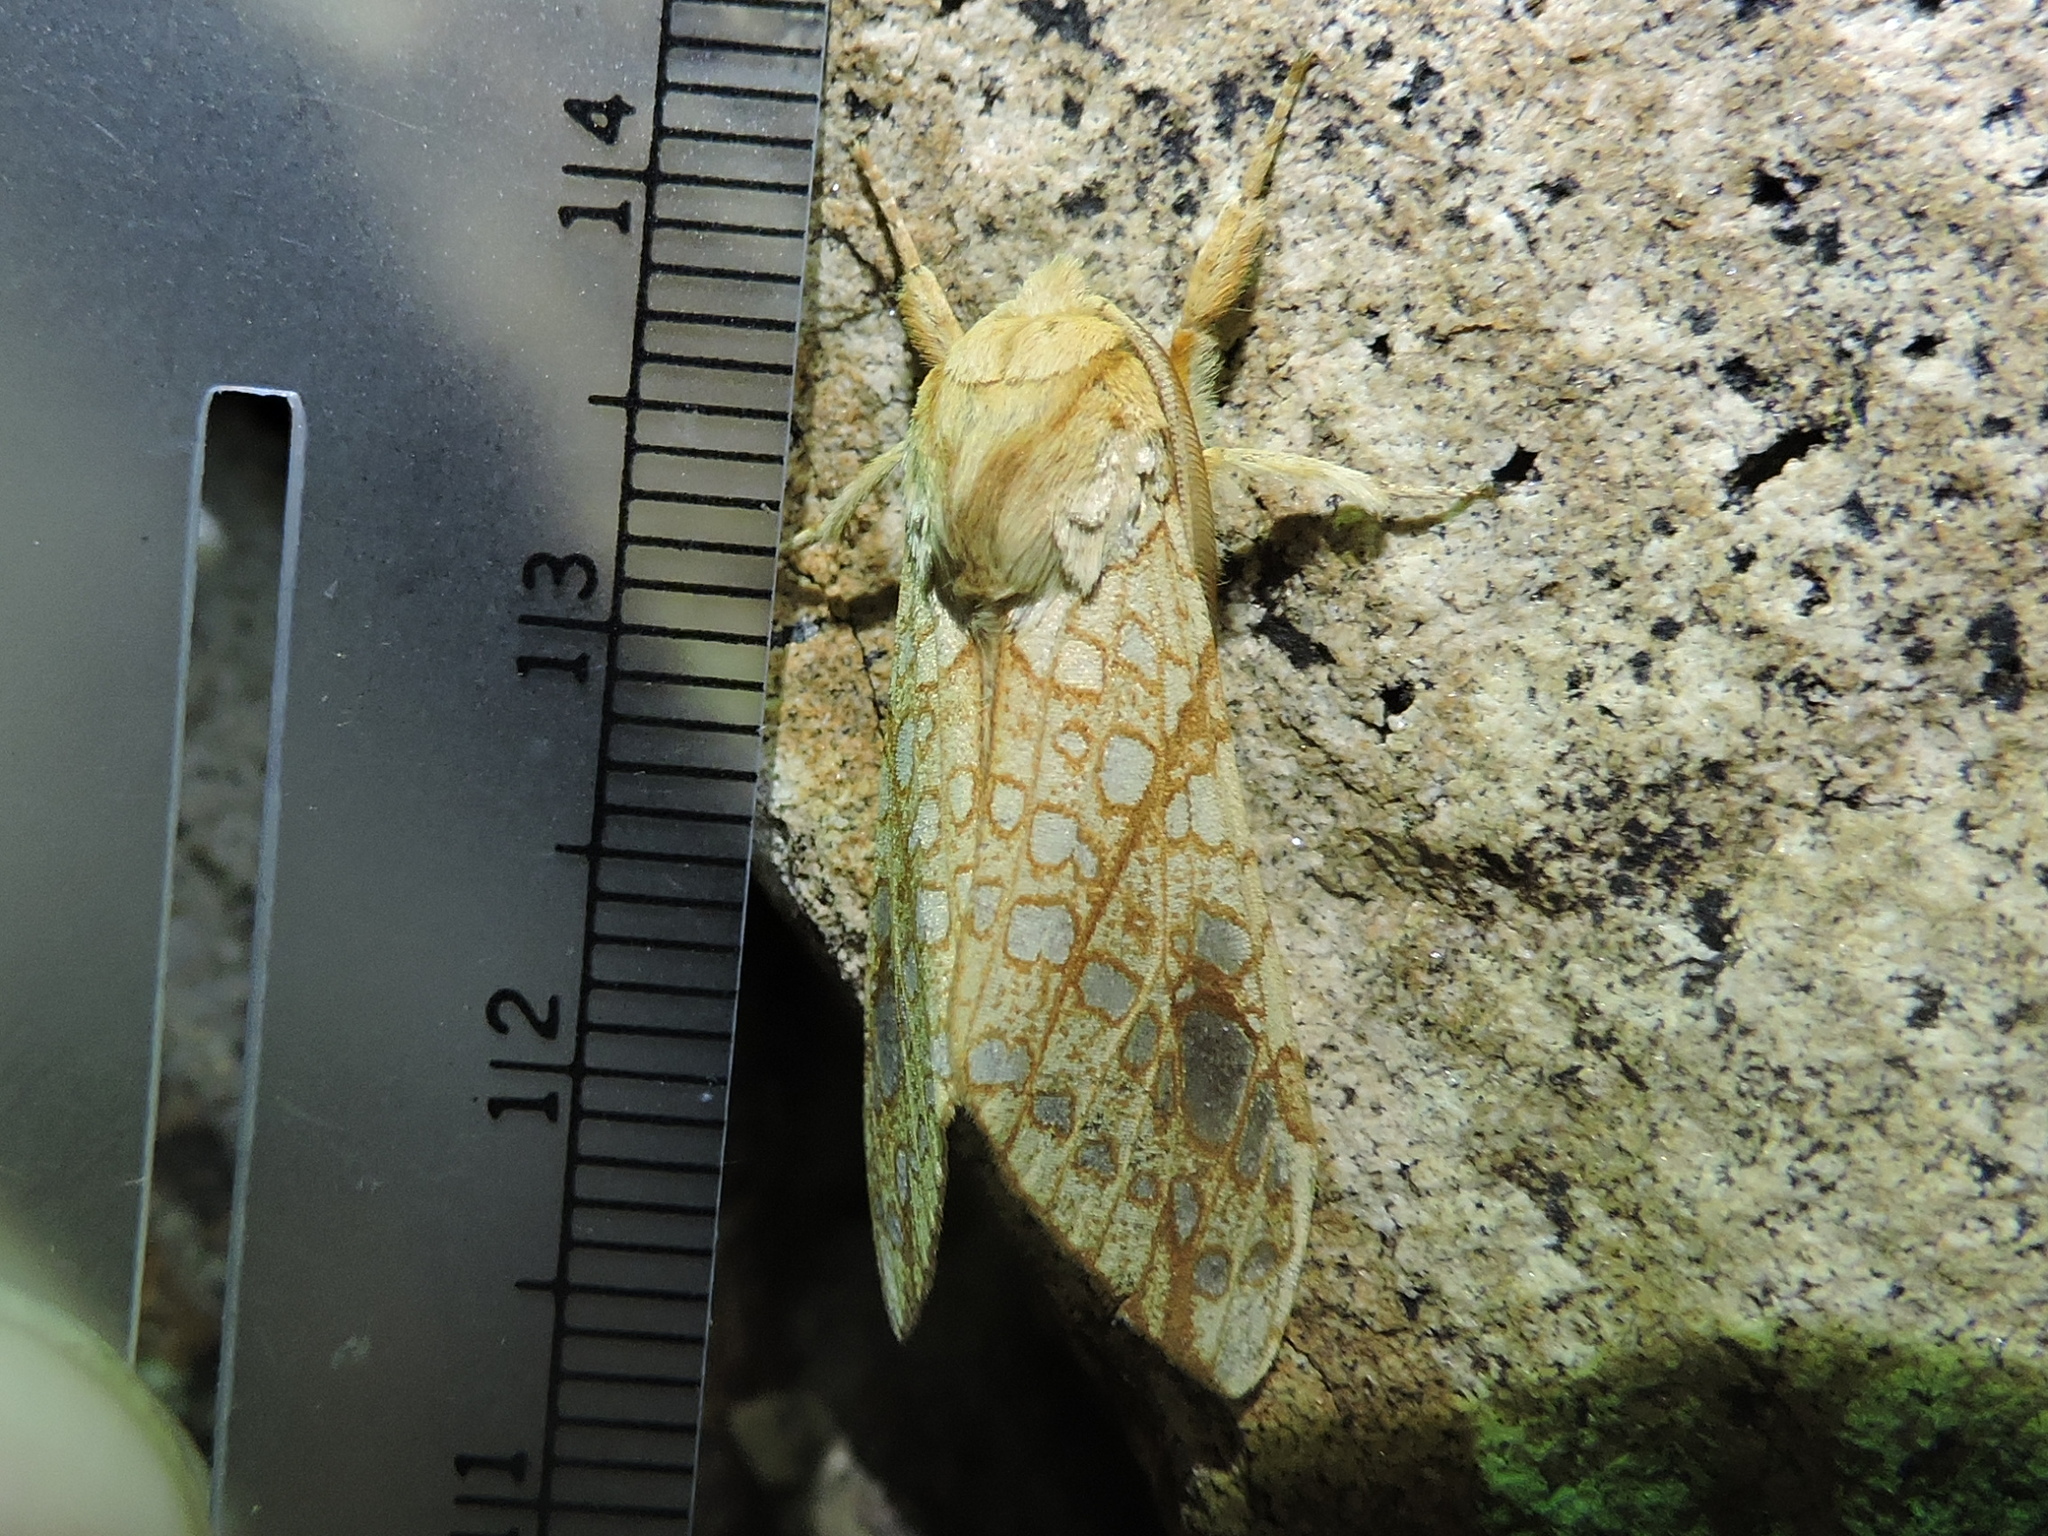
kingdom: Animalia
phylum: Arthropoda
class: Insecta
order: Lepidoptera
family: Erebidae
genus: Lophocampa
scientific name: Lophocampa bicolor
